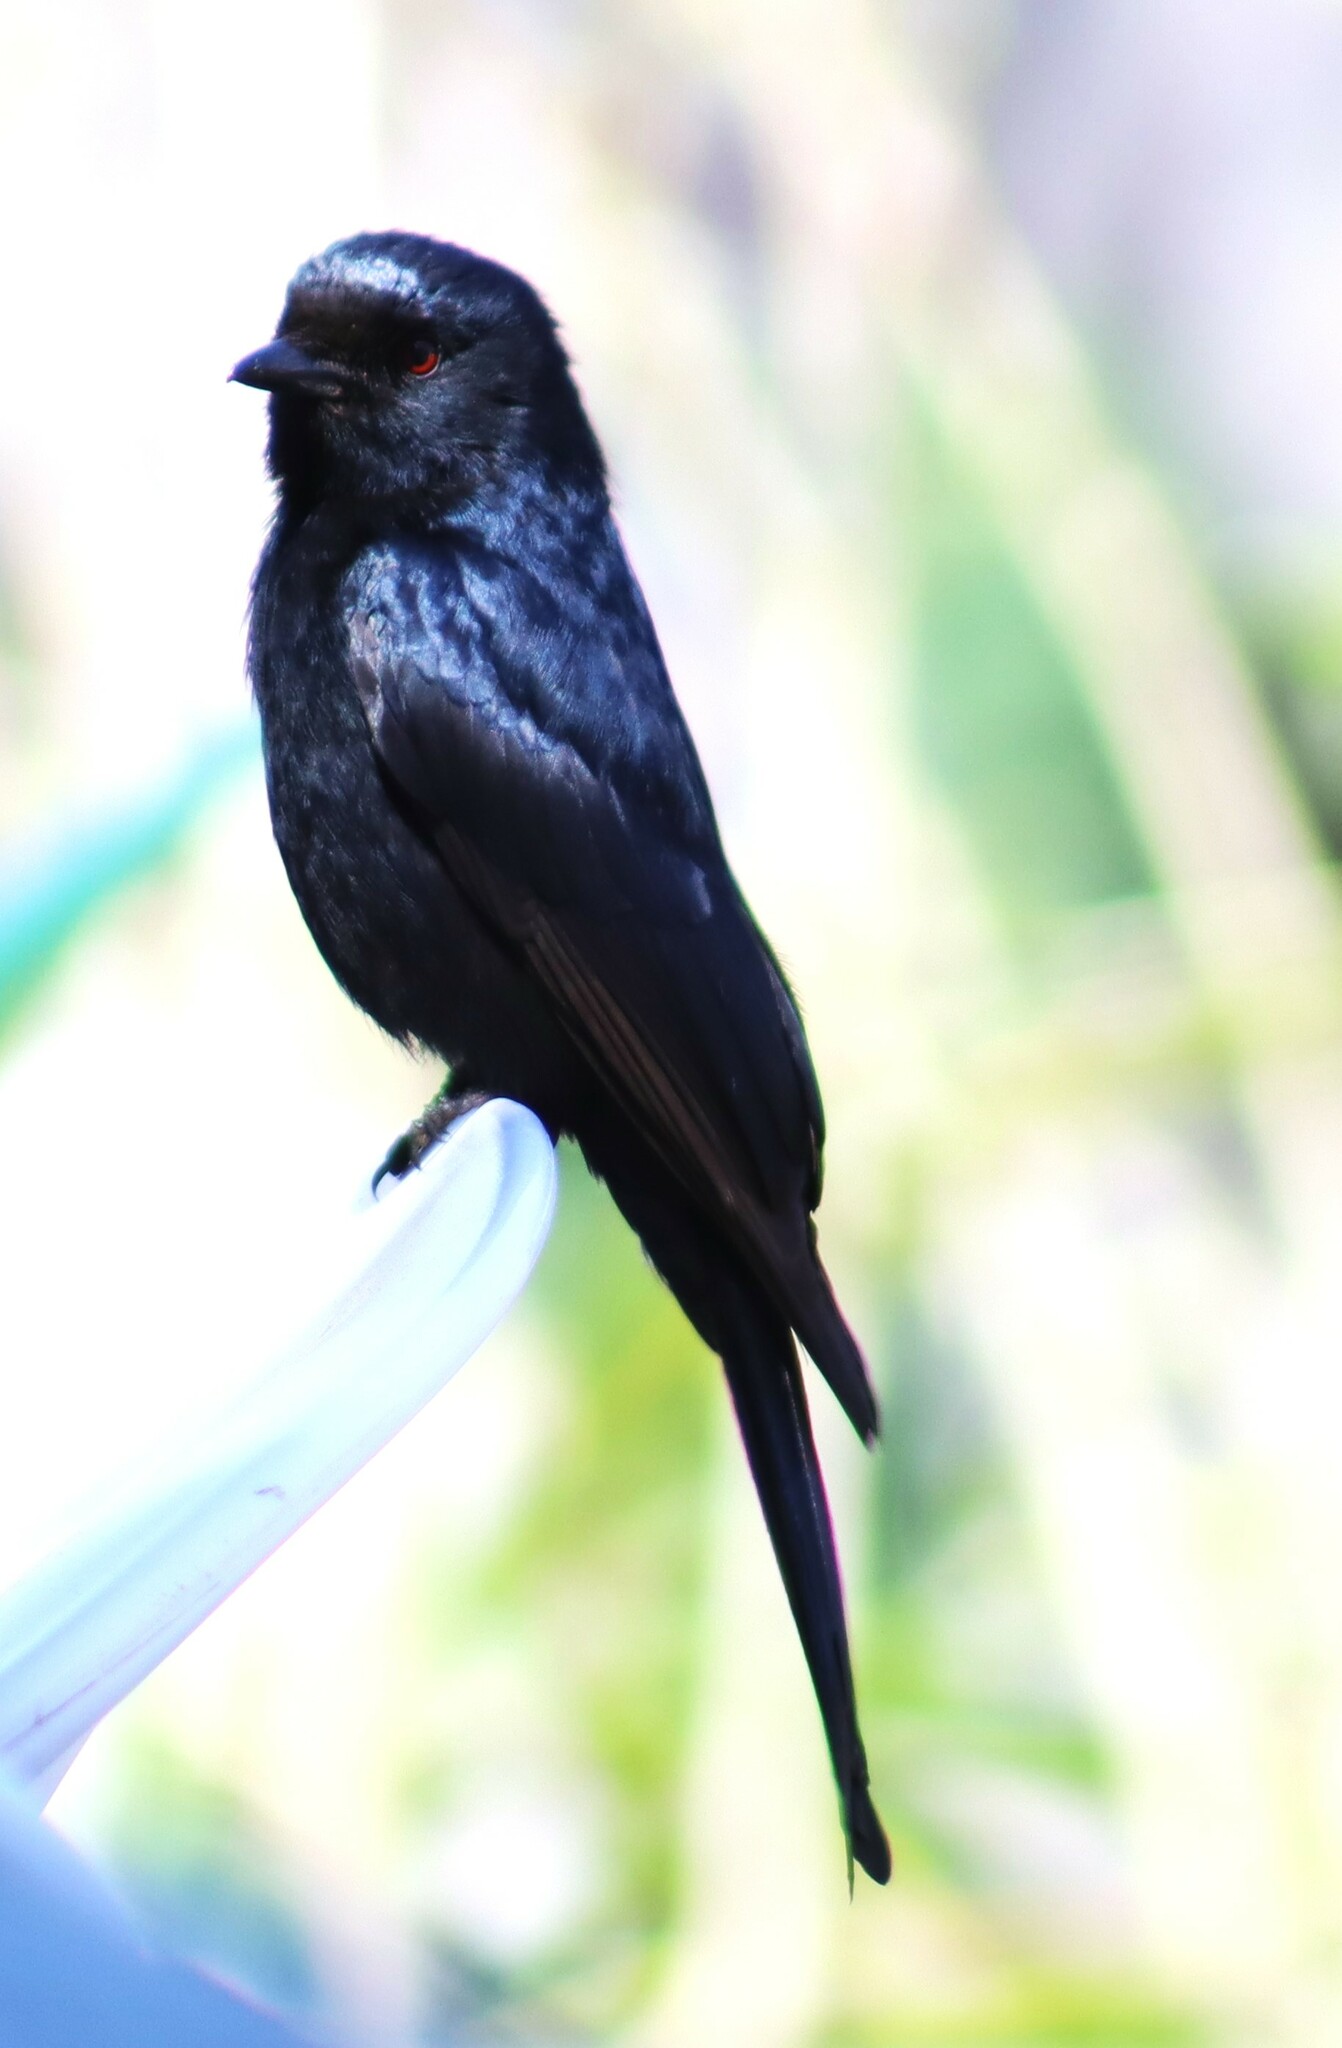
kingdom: Animalia
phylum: Chordata
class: Aves
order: Passeriformes
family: Dicruridae
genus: Dicrurus
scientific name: Dicrurus adsimilis
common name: Fork-tailed drongo
